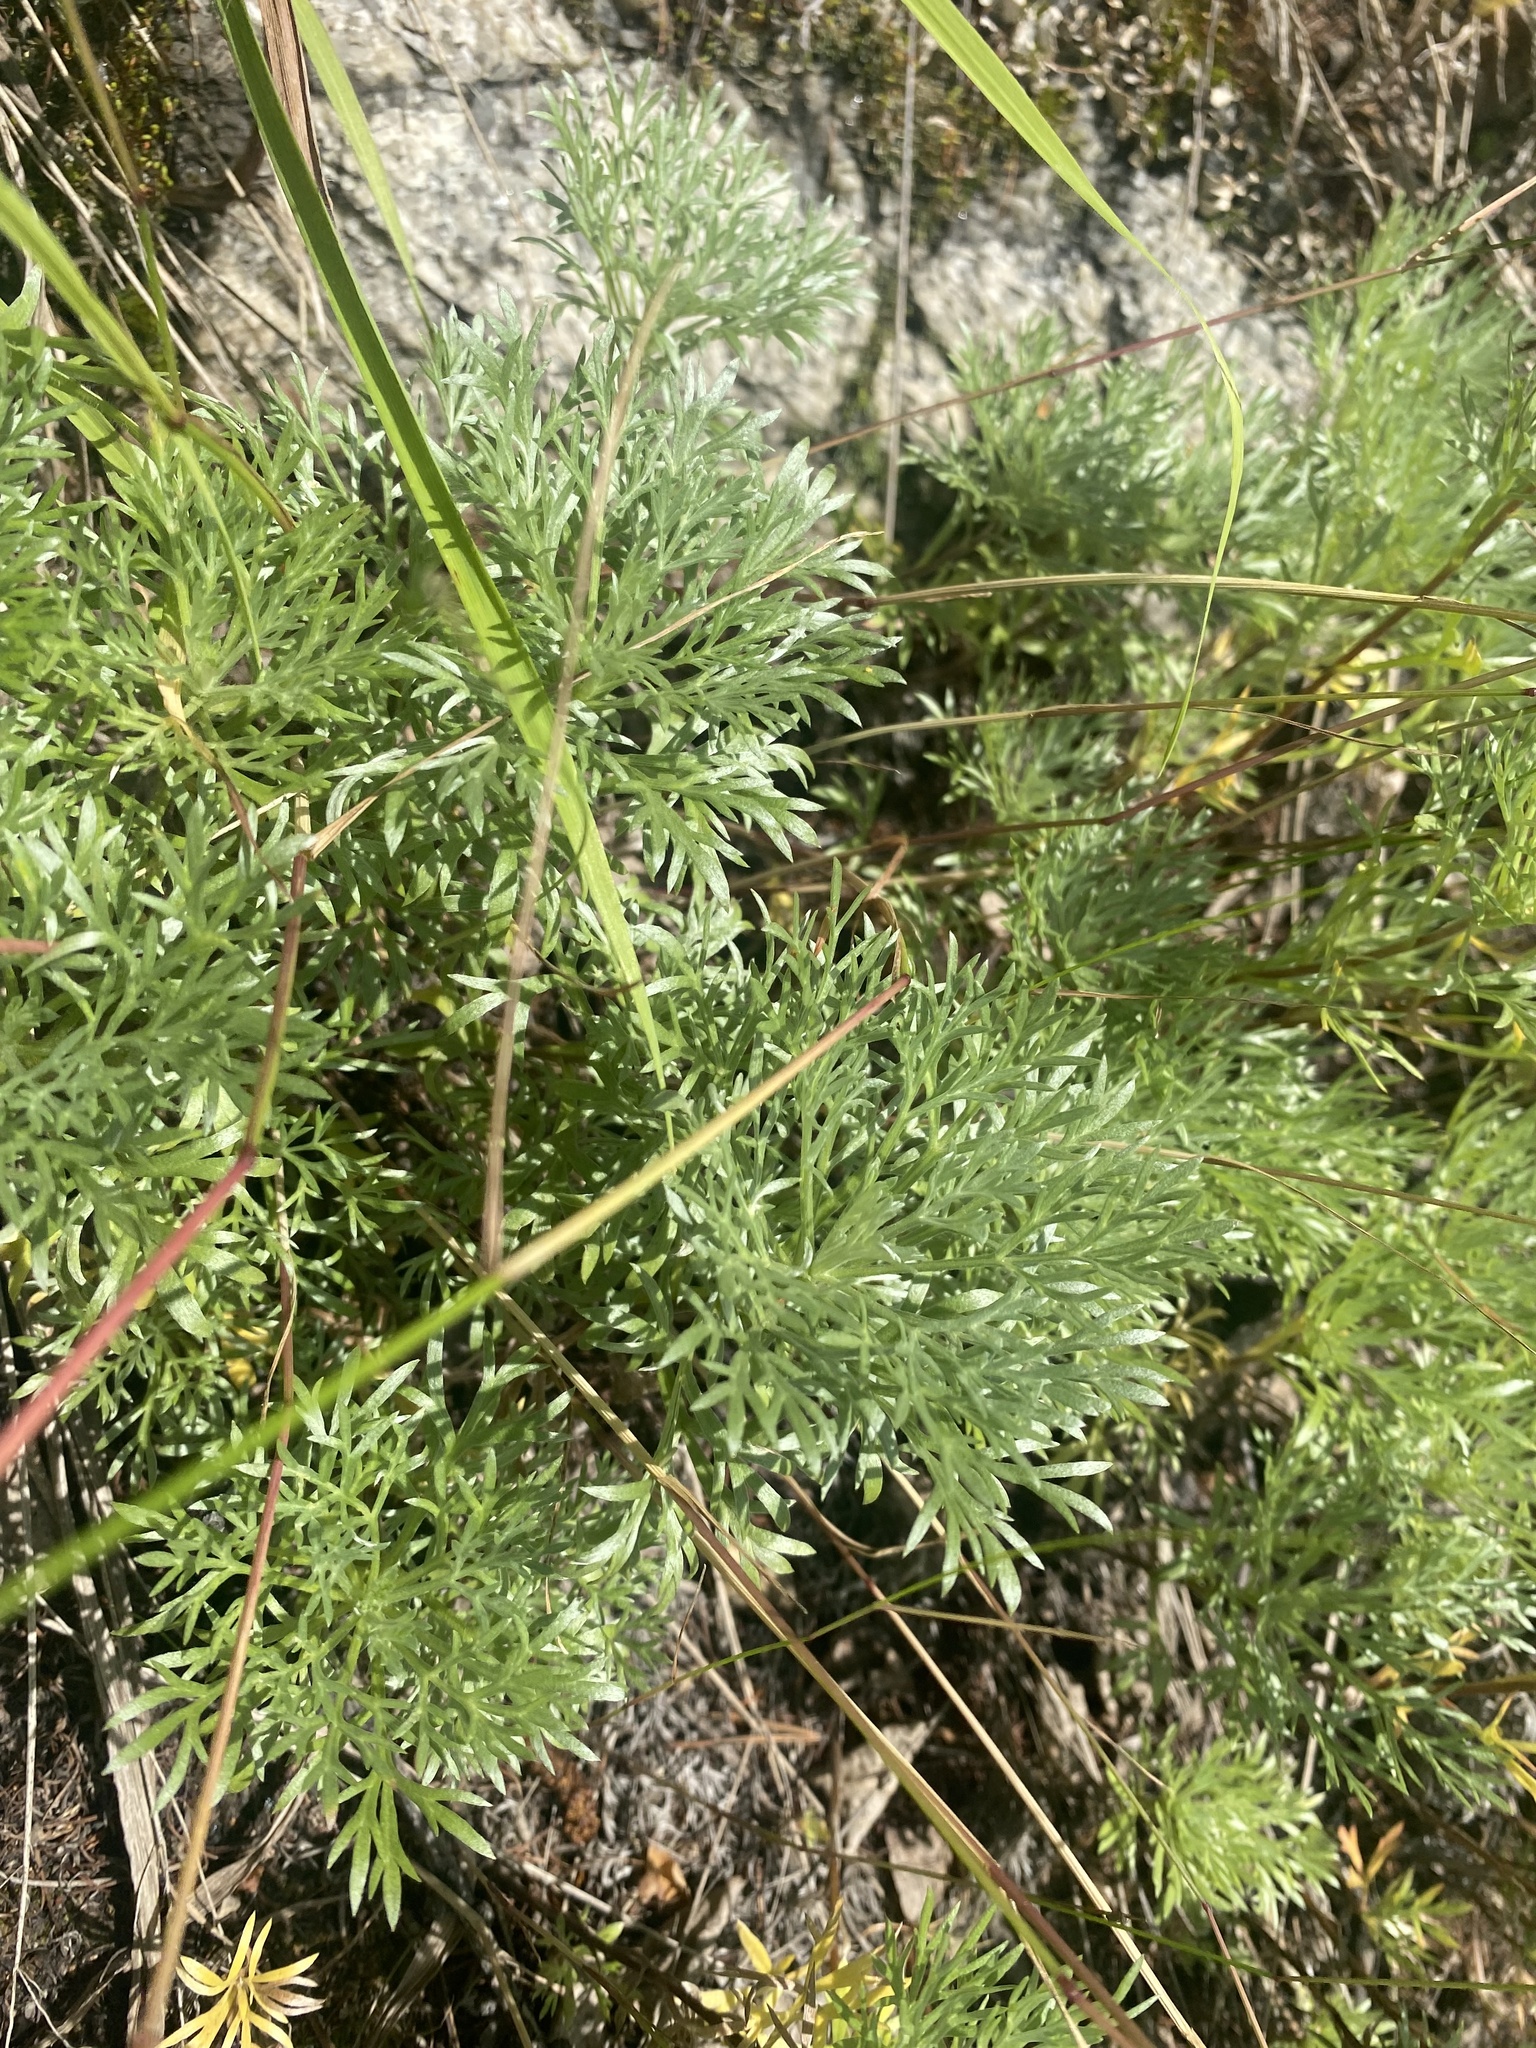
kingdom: Plantae
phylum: Tracheophyta
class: Magnoliopsida
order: Asterales
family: Asteraceae
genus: Artemisia
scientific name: Artemisia sericea
